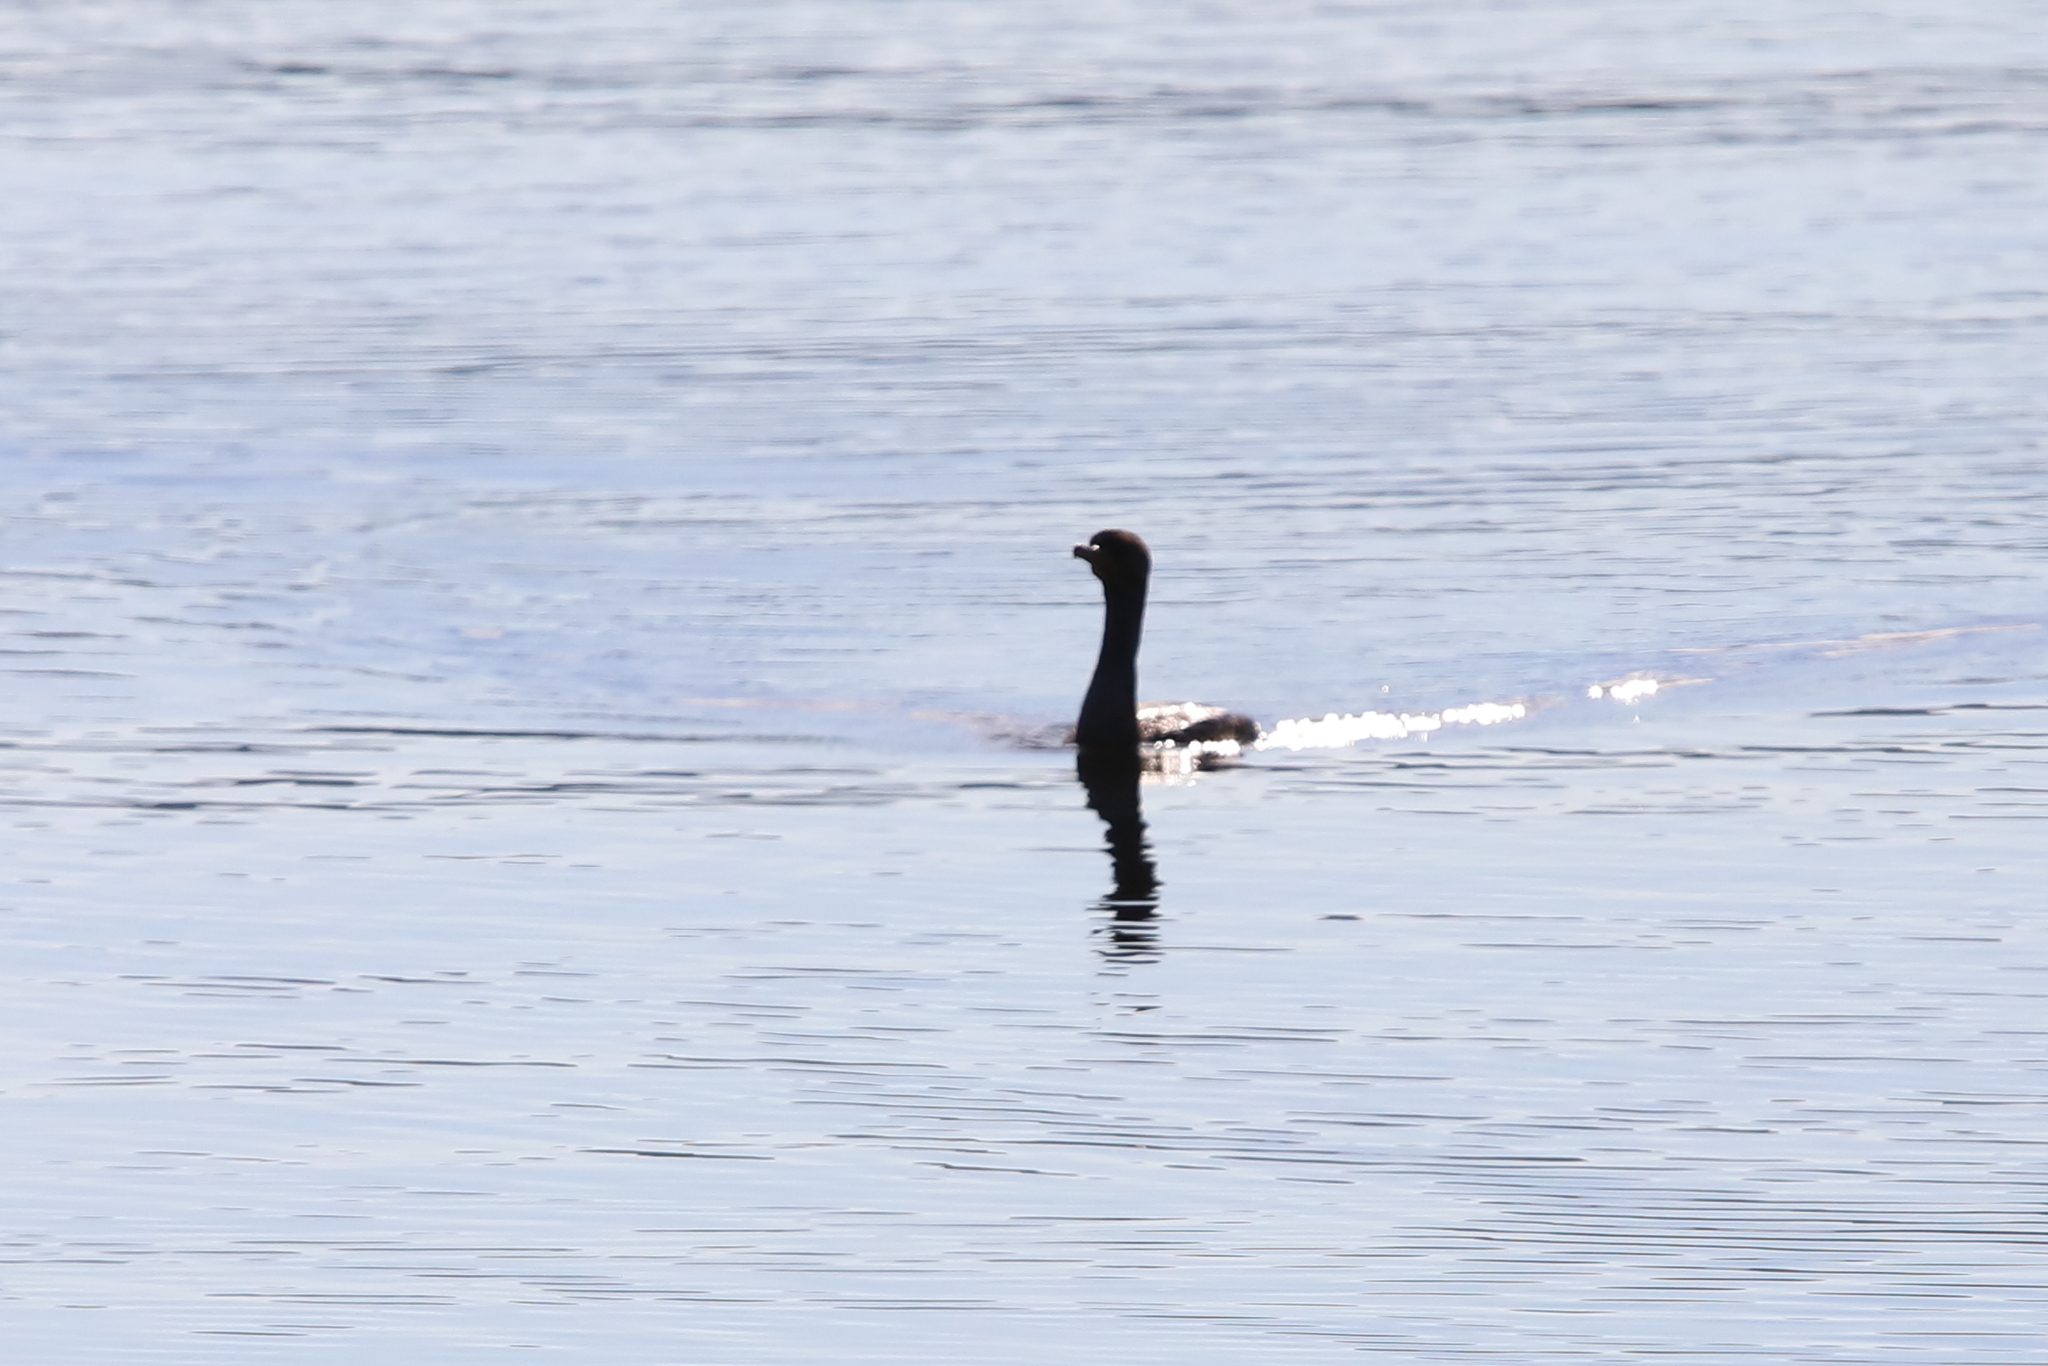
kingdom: Animalia
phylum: Chordata
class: Aves
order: Suliformes
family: Phalacrocoracidae
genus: Phalacrocorax
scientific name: Phalacrocorax auritus
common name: Double-crested cormorant
